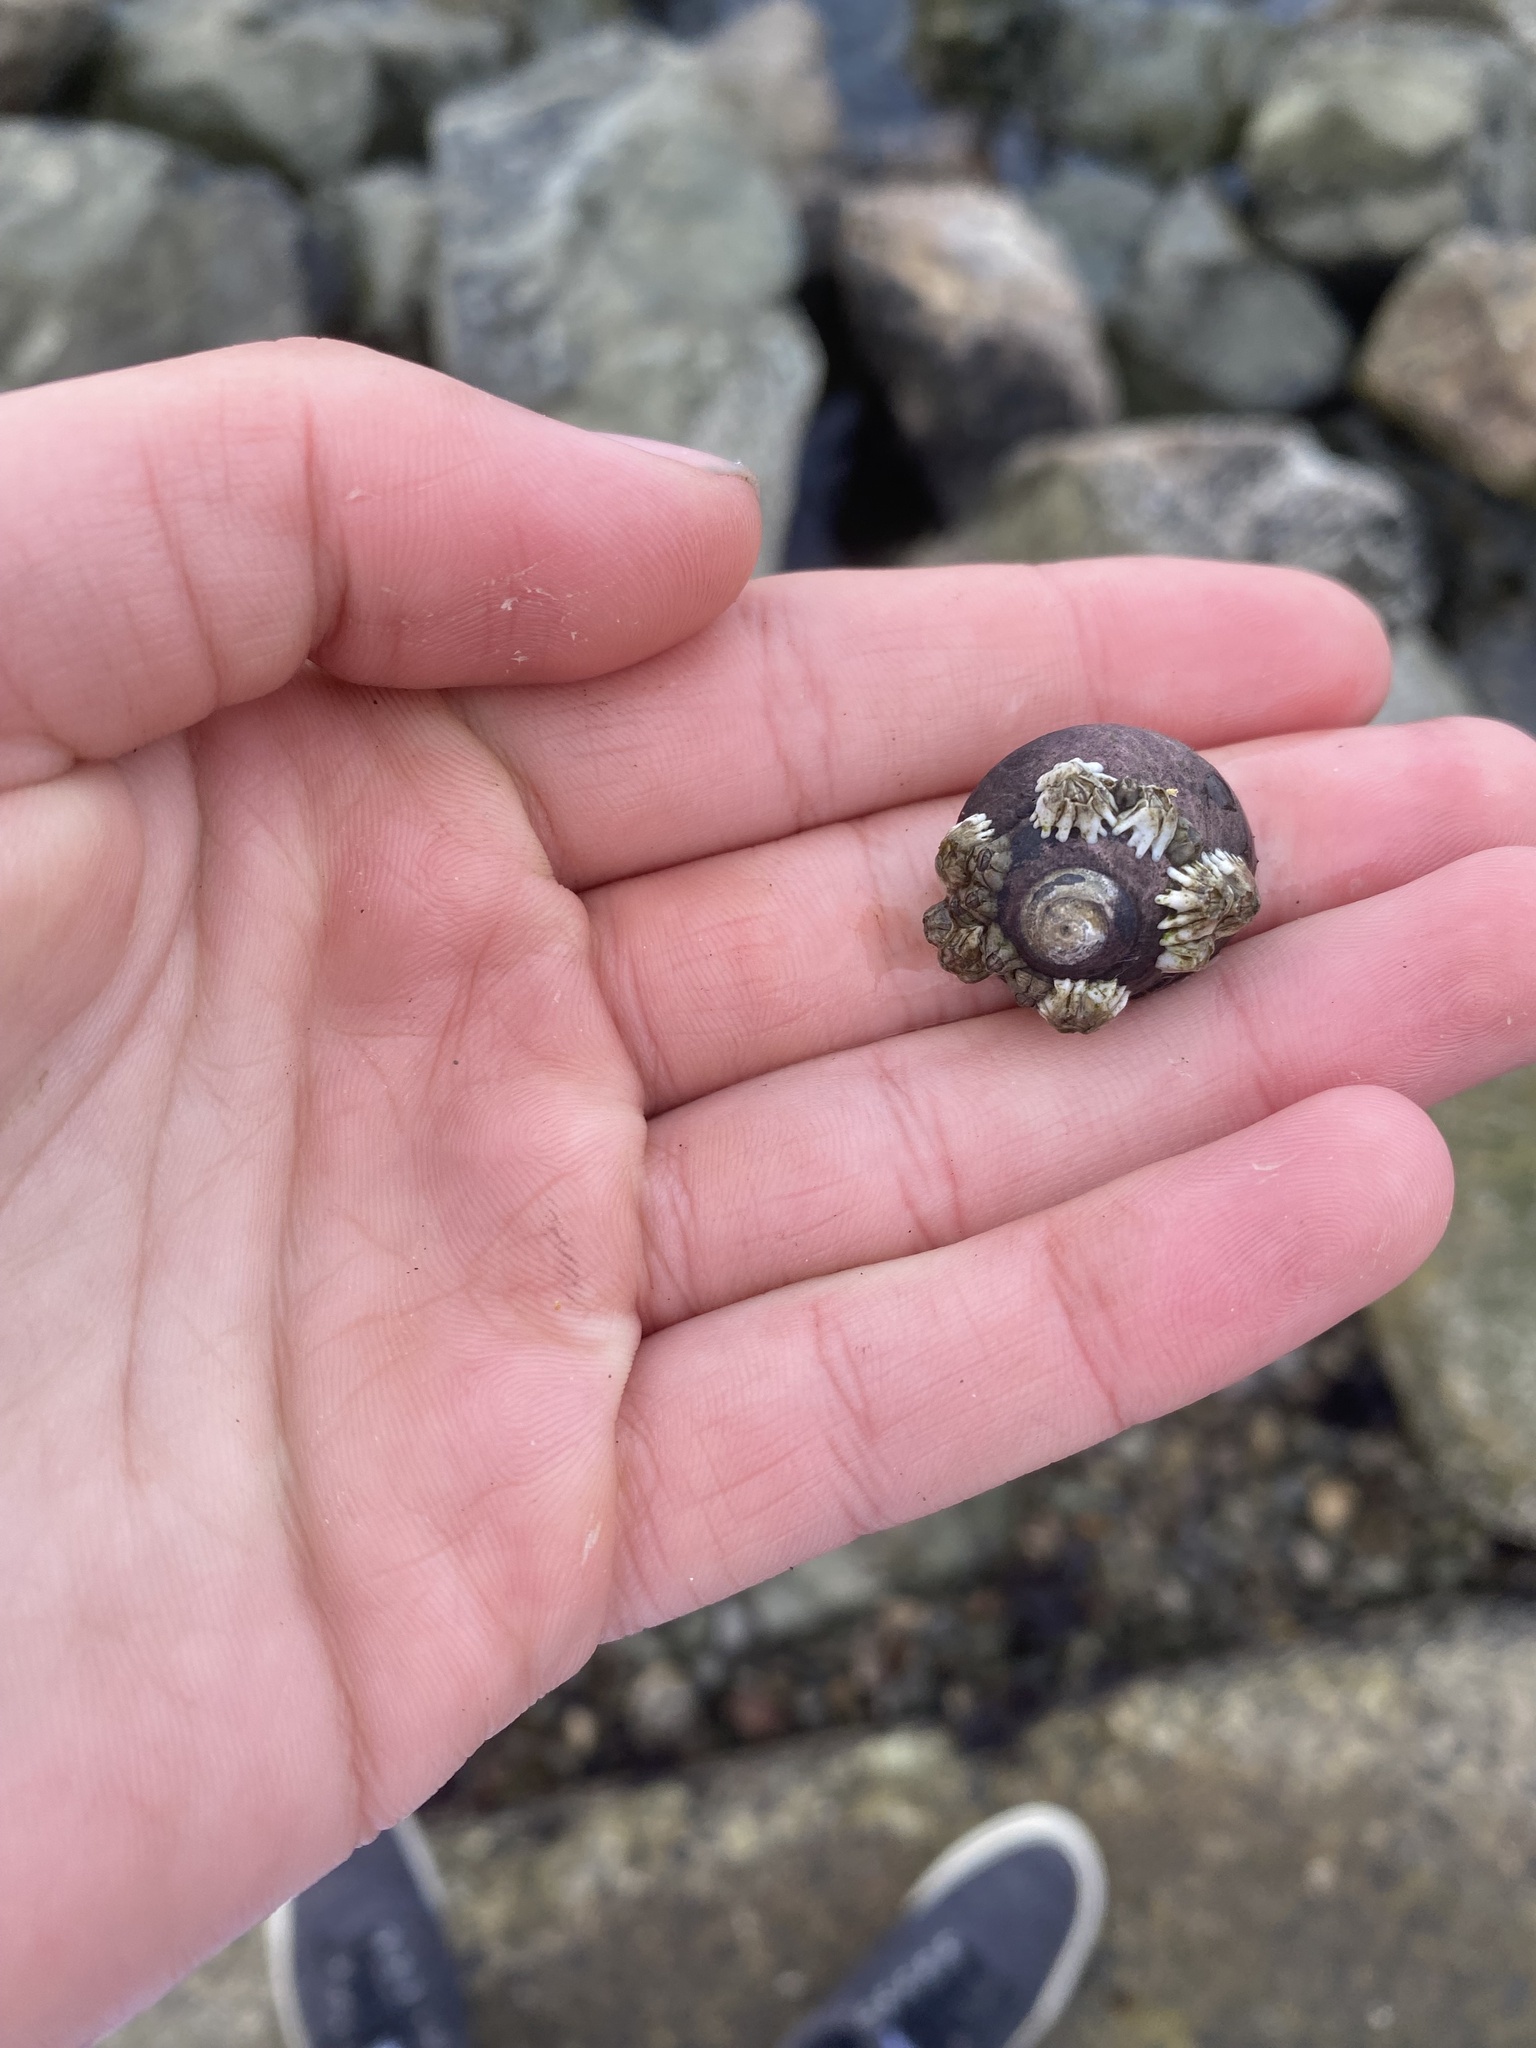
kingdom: Animalia
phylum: Mollusca
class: Gastropoda
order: Trochida
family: Tegulidae
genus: Tegula
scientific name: Tegula funebralis
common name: Black tegula
